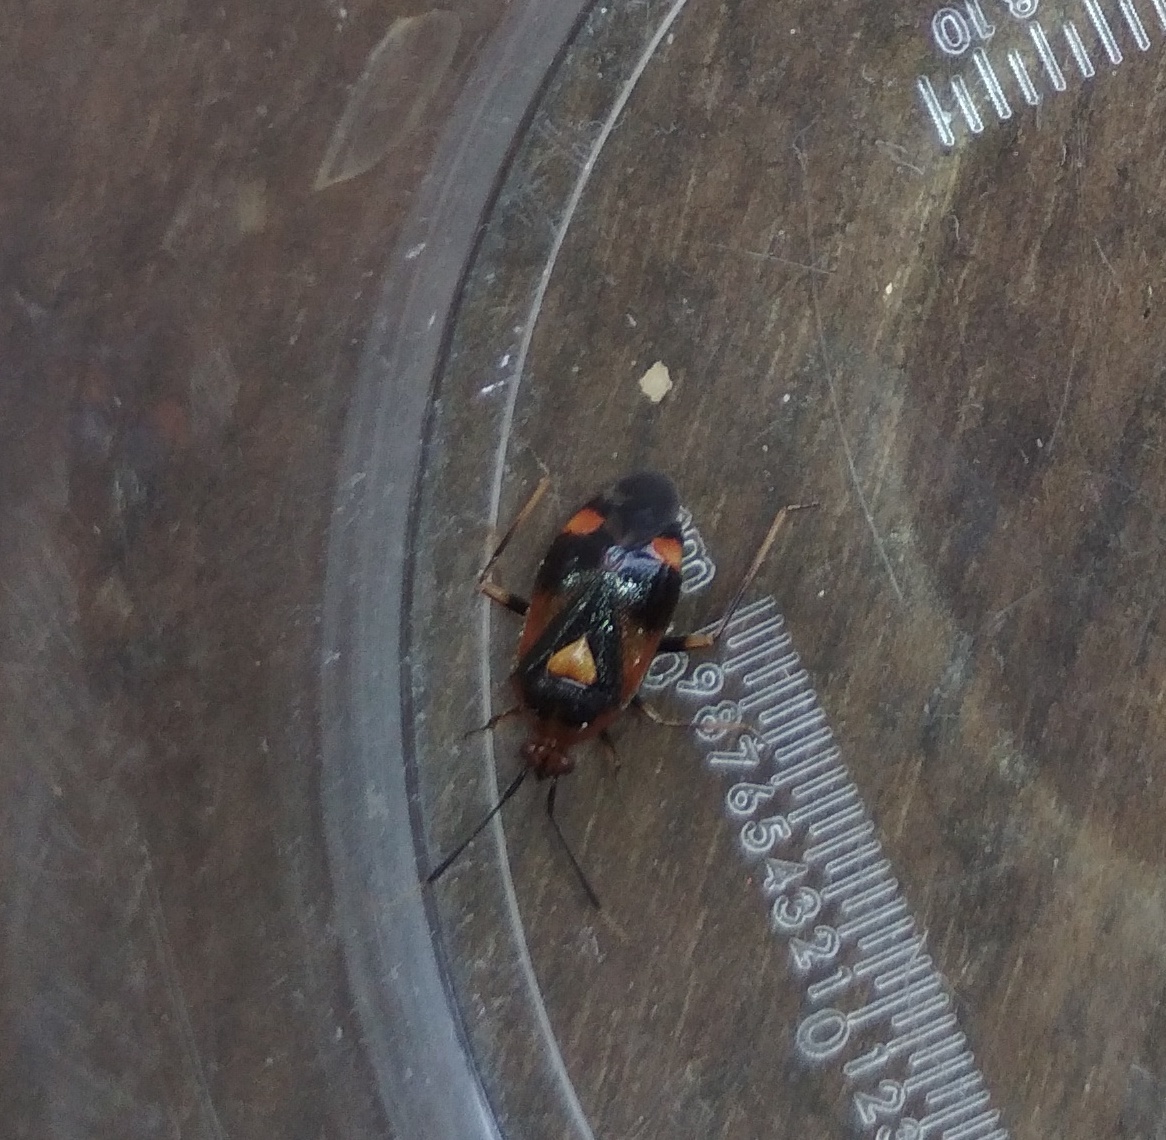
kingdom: Animalia
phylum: Arthropoda
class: Insecta
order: Hemiptera
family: Miridae
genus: Deraeocoris
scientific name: Deraeocoris ruber
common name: Plant bug
